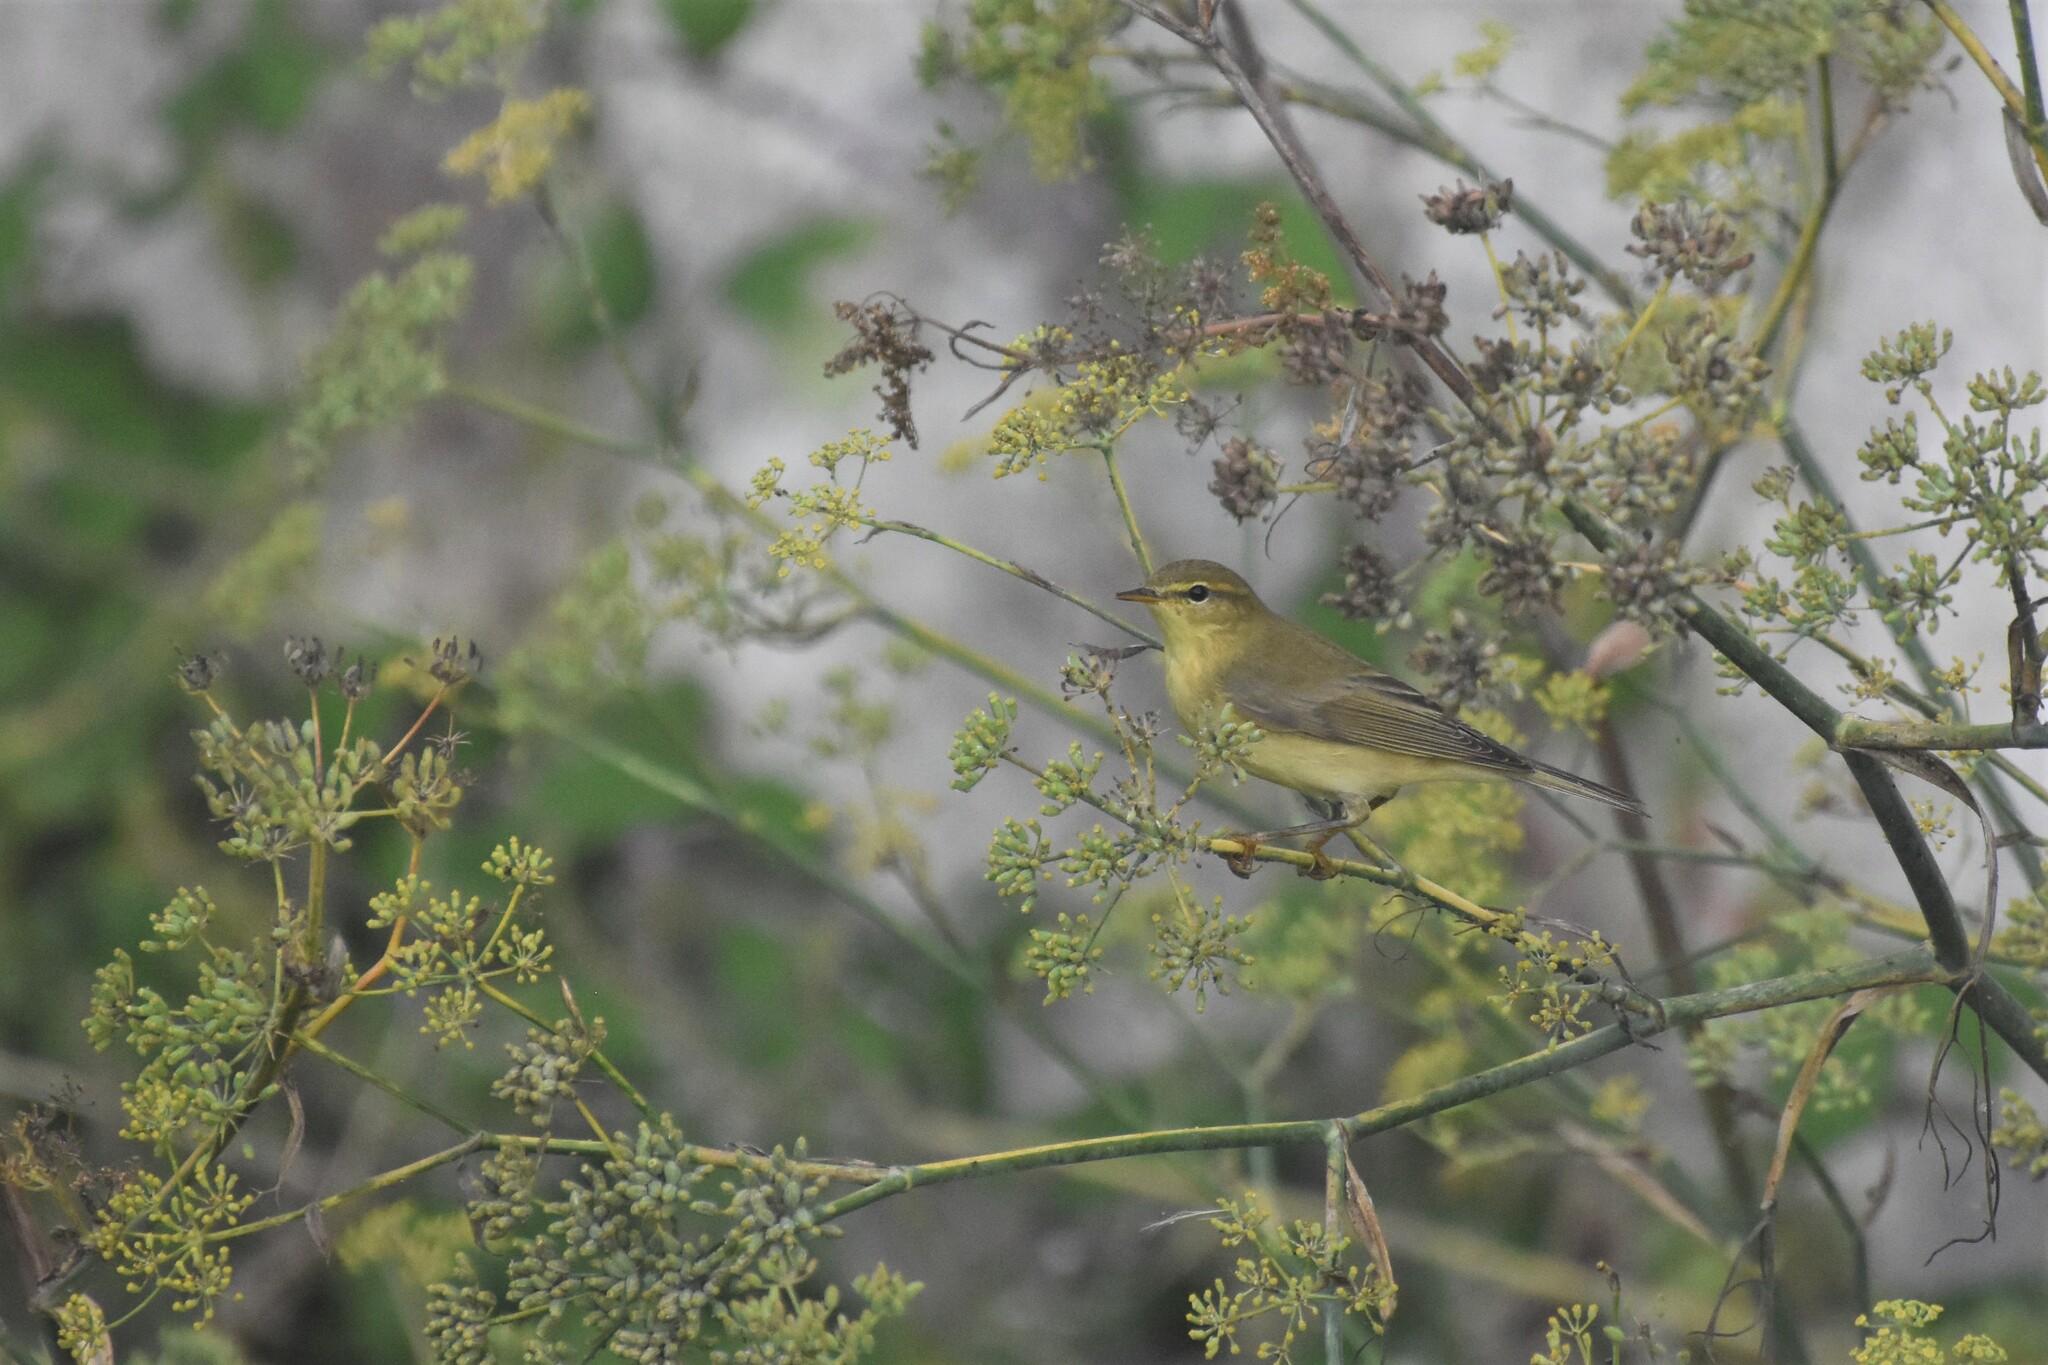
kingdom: Animalia
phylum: Chordata
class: Aves
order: Passeriformes
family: Phylloscopidae
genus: Phylloscopus
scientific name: Phylloscopus trochilus
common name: Willow warbler
